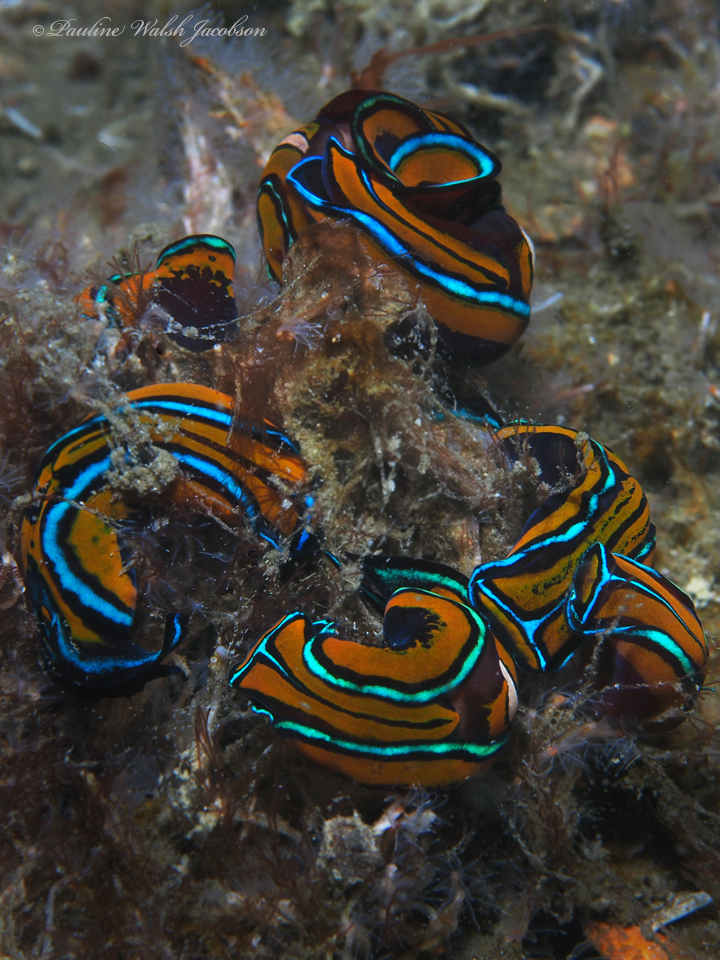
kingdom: Animalia
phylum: Mollusca
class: Gastropoda
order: Cephalaspidea
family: Aglajidae
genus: Chelidonura
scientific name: Chelidonura hirundinina
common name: Leech headshield slug
